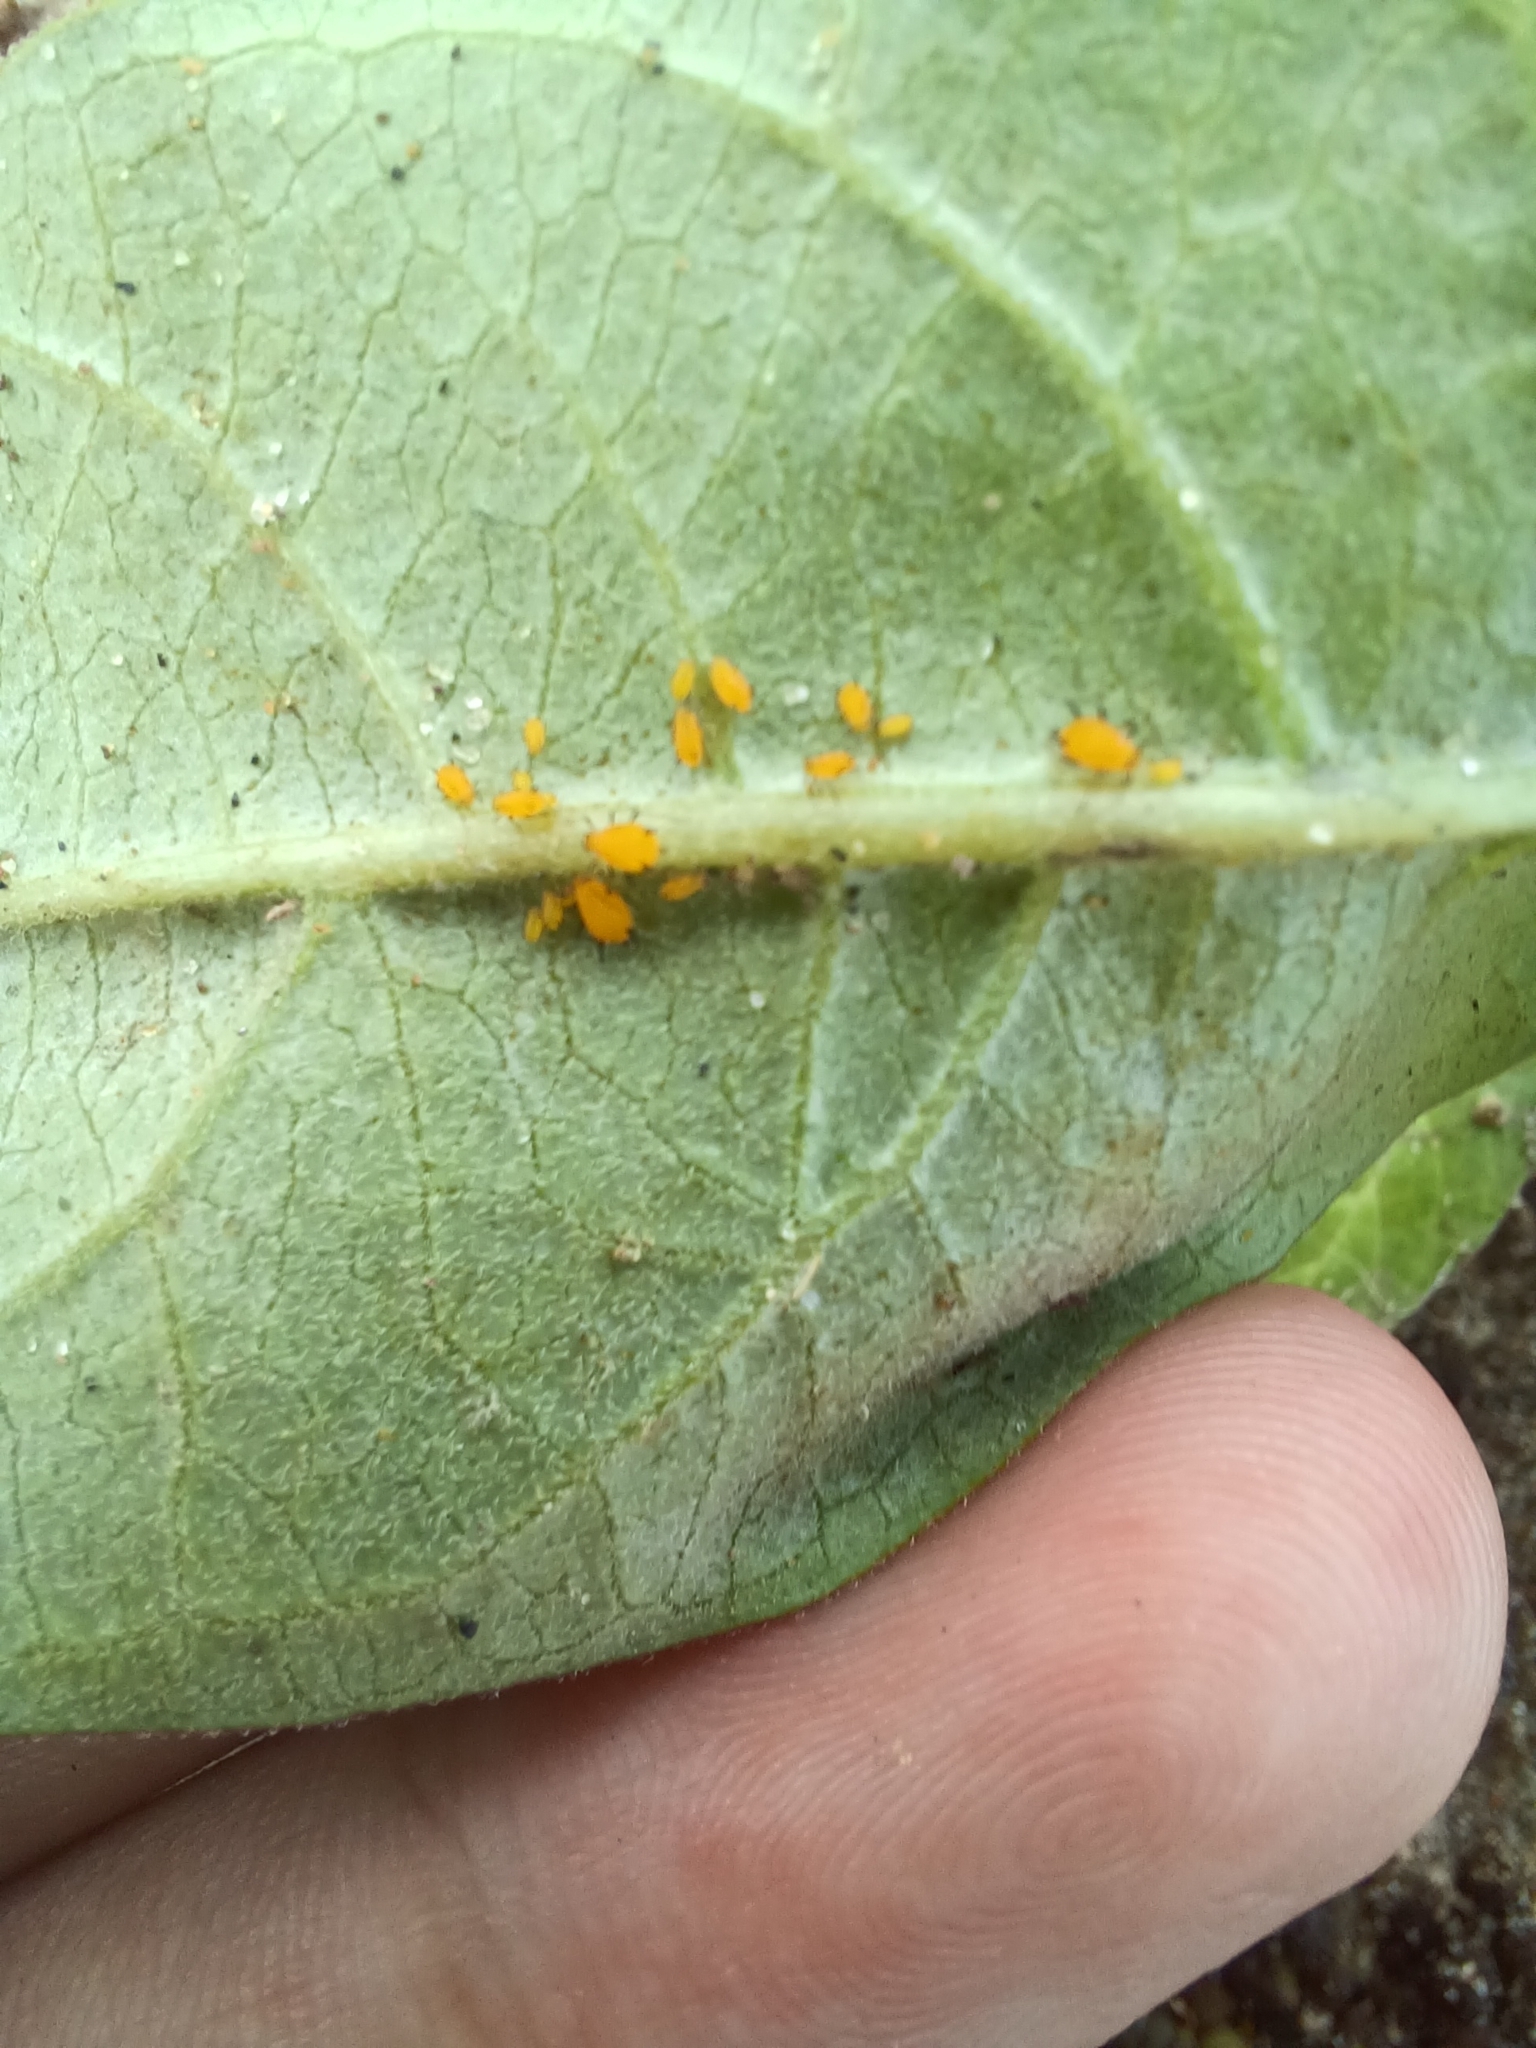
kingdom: Animalia
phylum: Arthropoda
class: Insecta
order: Hemiptera
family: Aphididae
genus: Aphis
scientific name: Aphis nerii
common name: Oleander aphid
